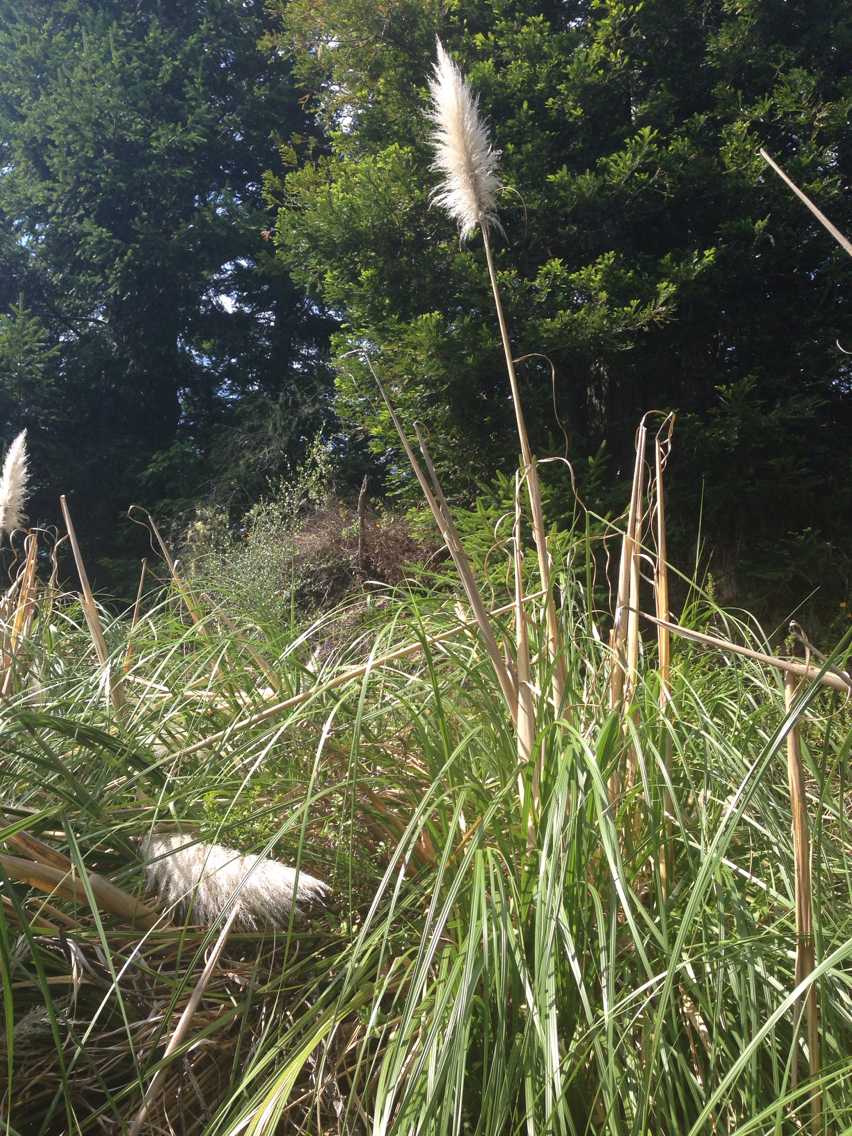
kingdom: Plantae
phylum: Tracheophyta
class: Liliopsida
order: Poales
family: Poaceae
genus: Cortaderia
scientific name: Cortaderia selloana
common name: Uruguayan pampas grass
